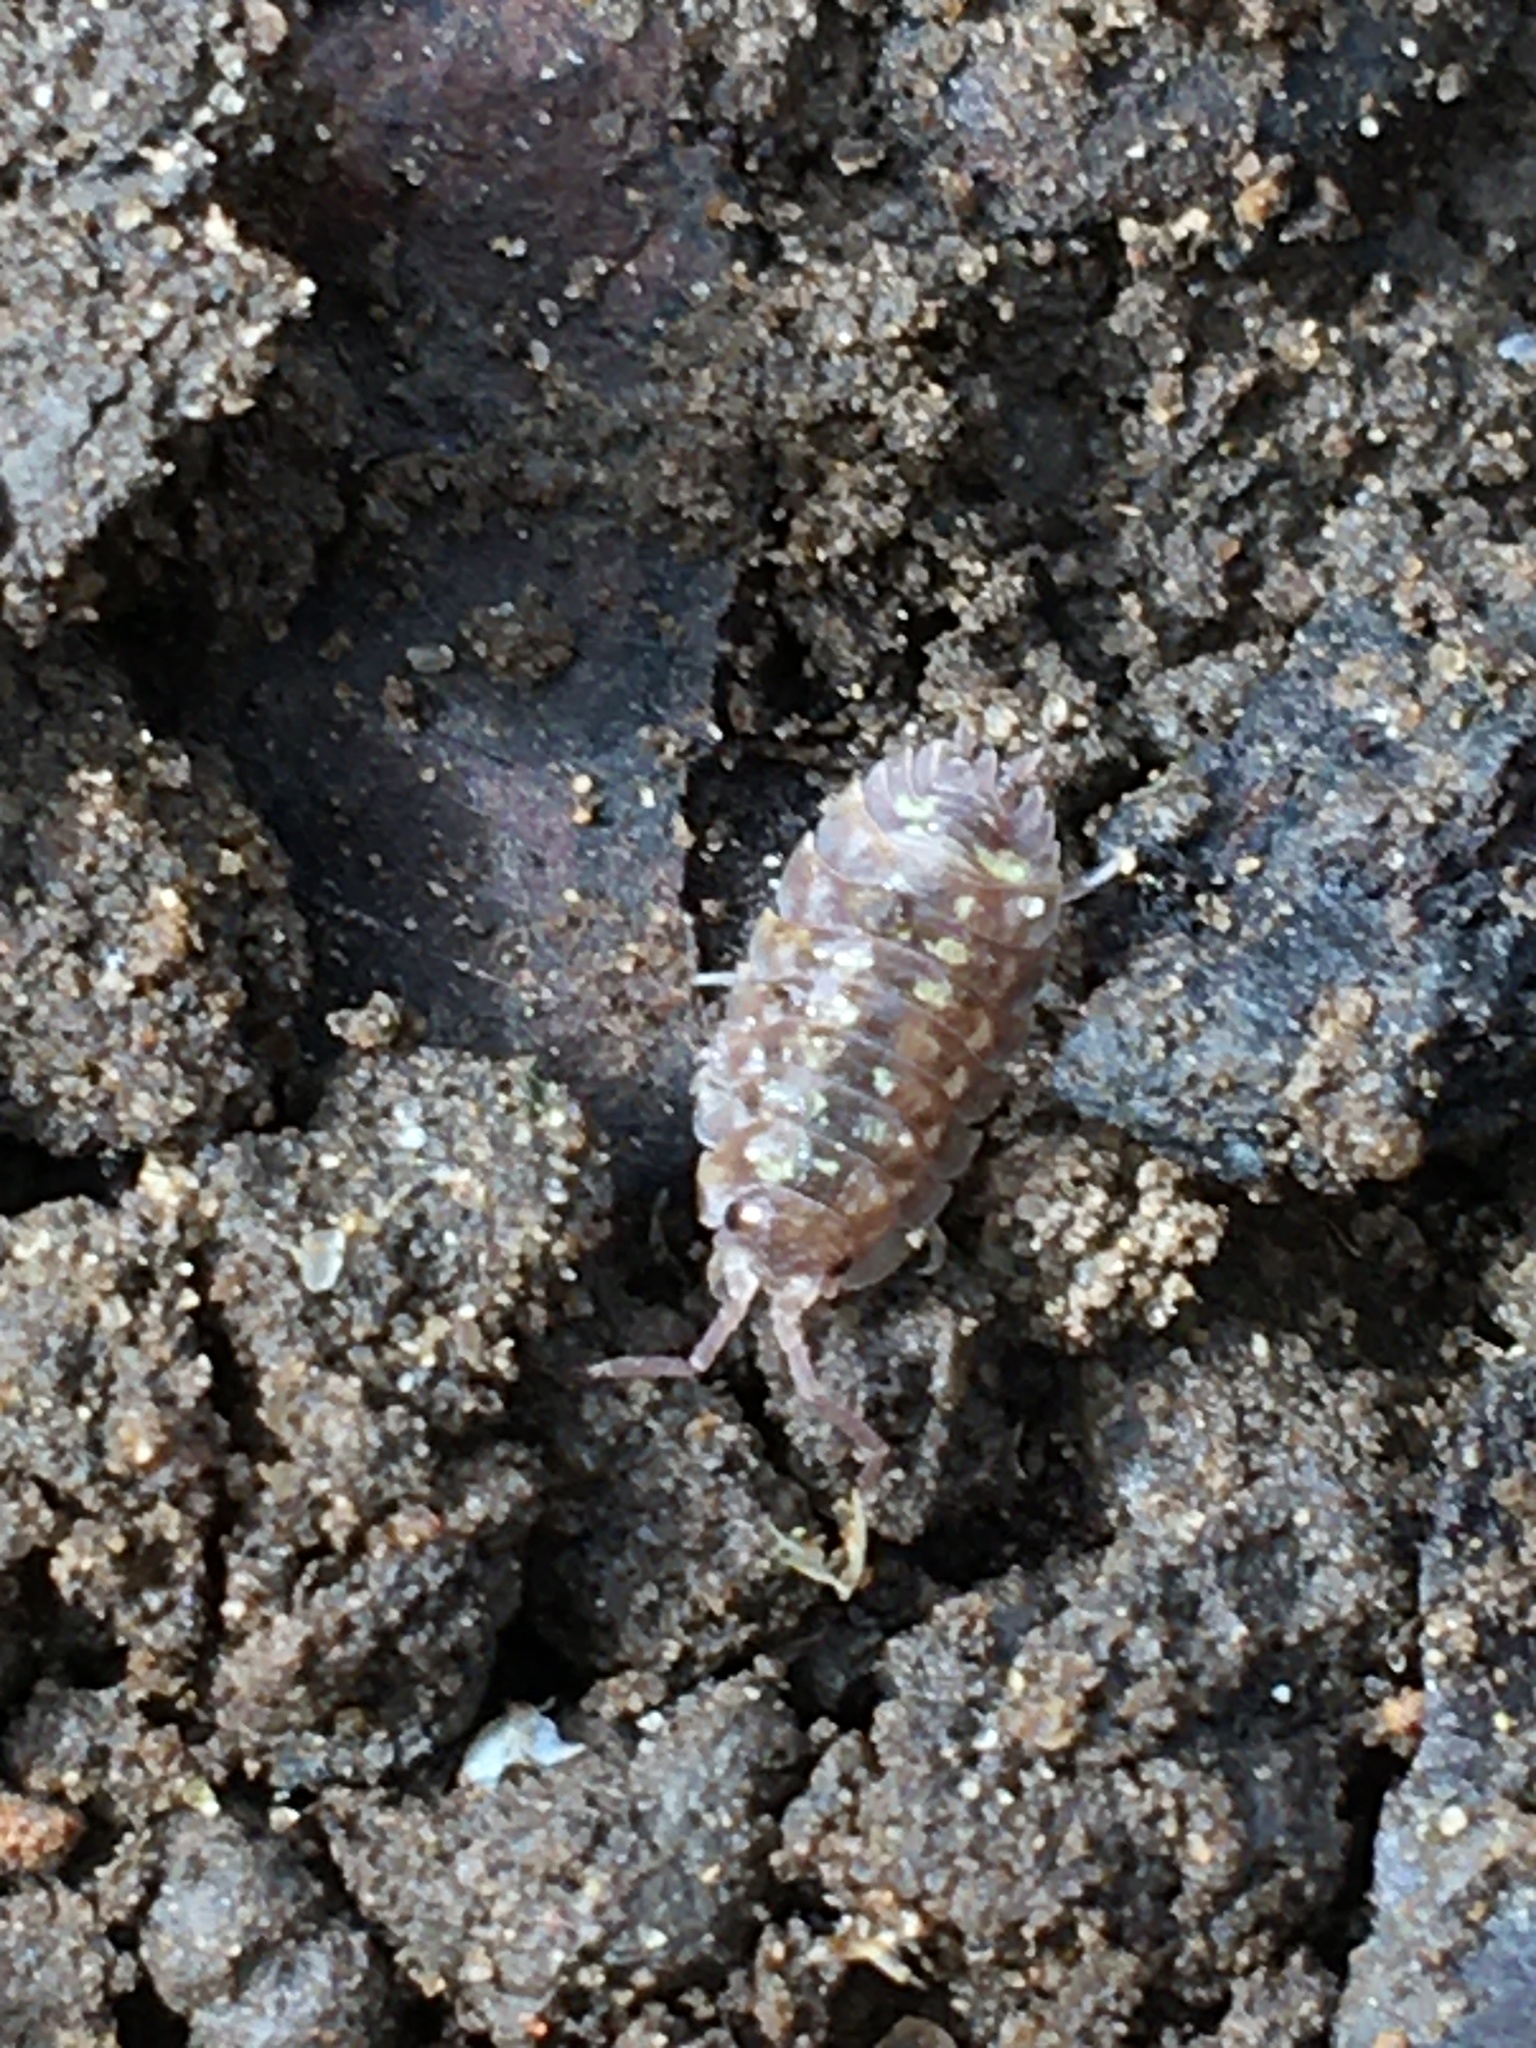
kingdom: Animalia
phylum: Arthropoda
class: Malacostraca
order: Isopoda
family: Oniscidae
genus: Oniscus
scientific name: Oniscus asellus
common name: Common shiny woodlouse
